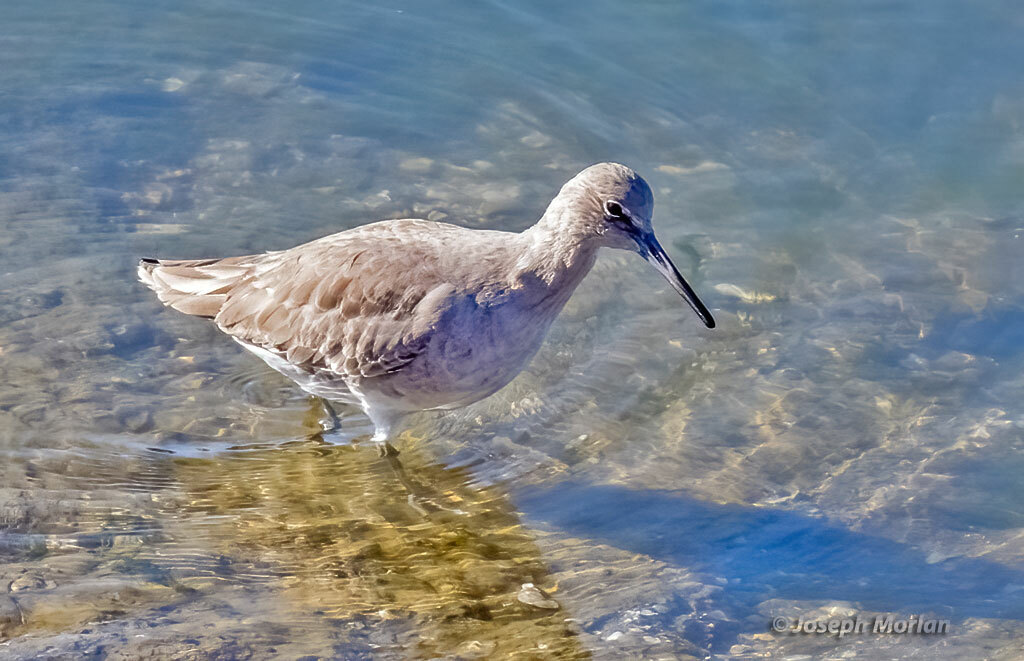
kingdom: Animalia
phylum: Chordata
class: Aves
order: Charadriiformes
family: Scolopacidae
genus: Tringa
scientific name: Tringa semipalmata
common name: Willet
